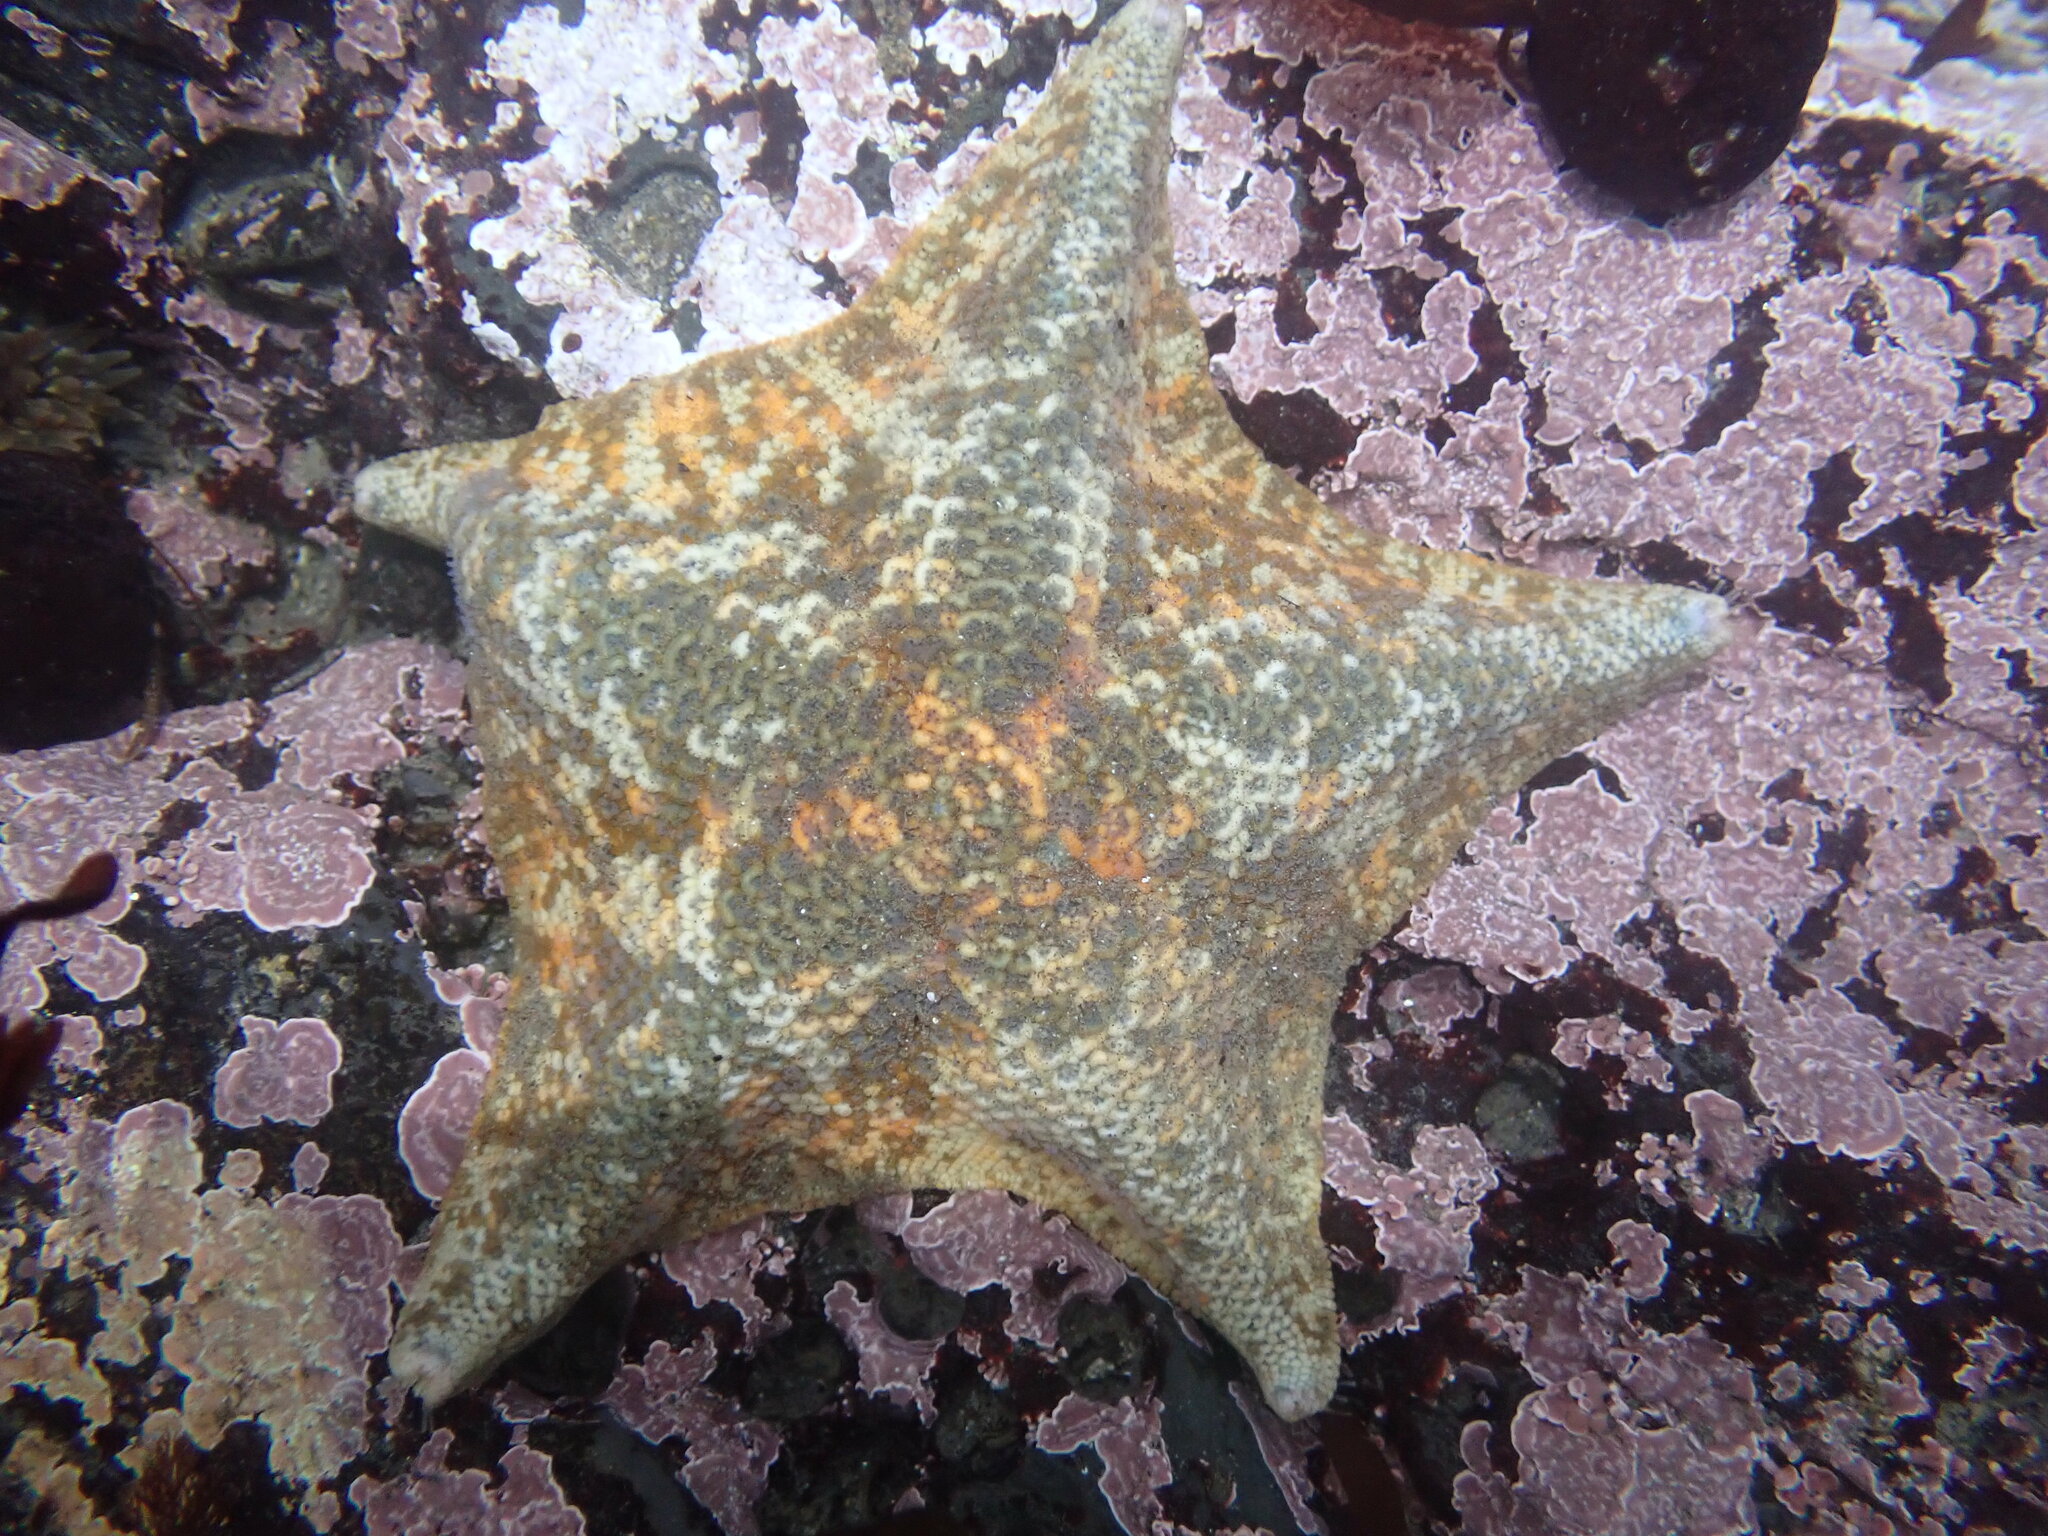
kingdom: Animalia
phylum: Echinodermata
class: Asteroidea
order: Valvatida
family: Asterinidae
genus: Patiria
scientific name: Patiria miniata
